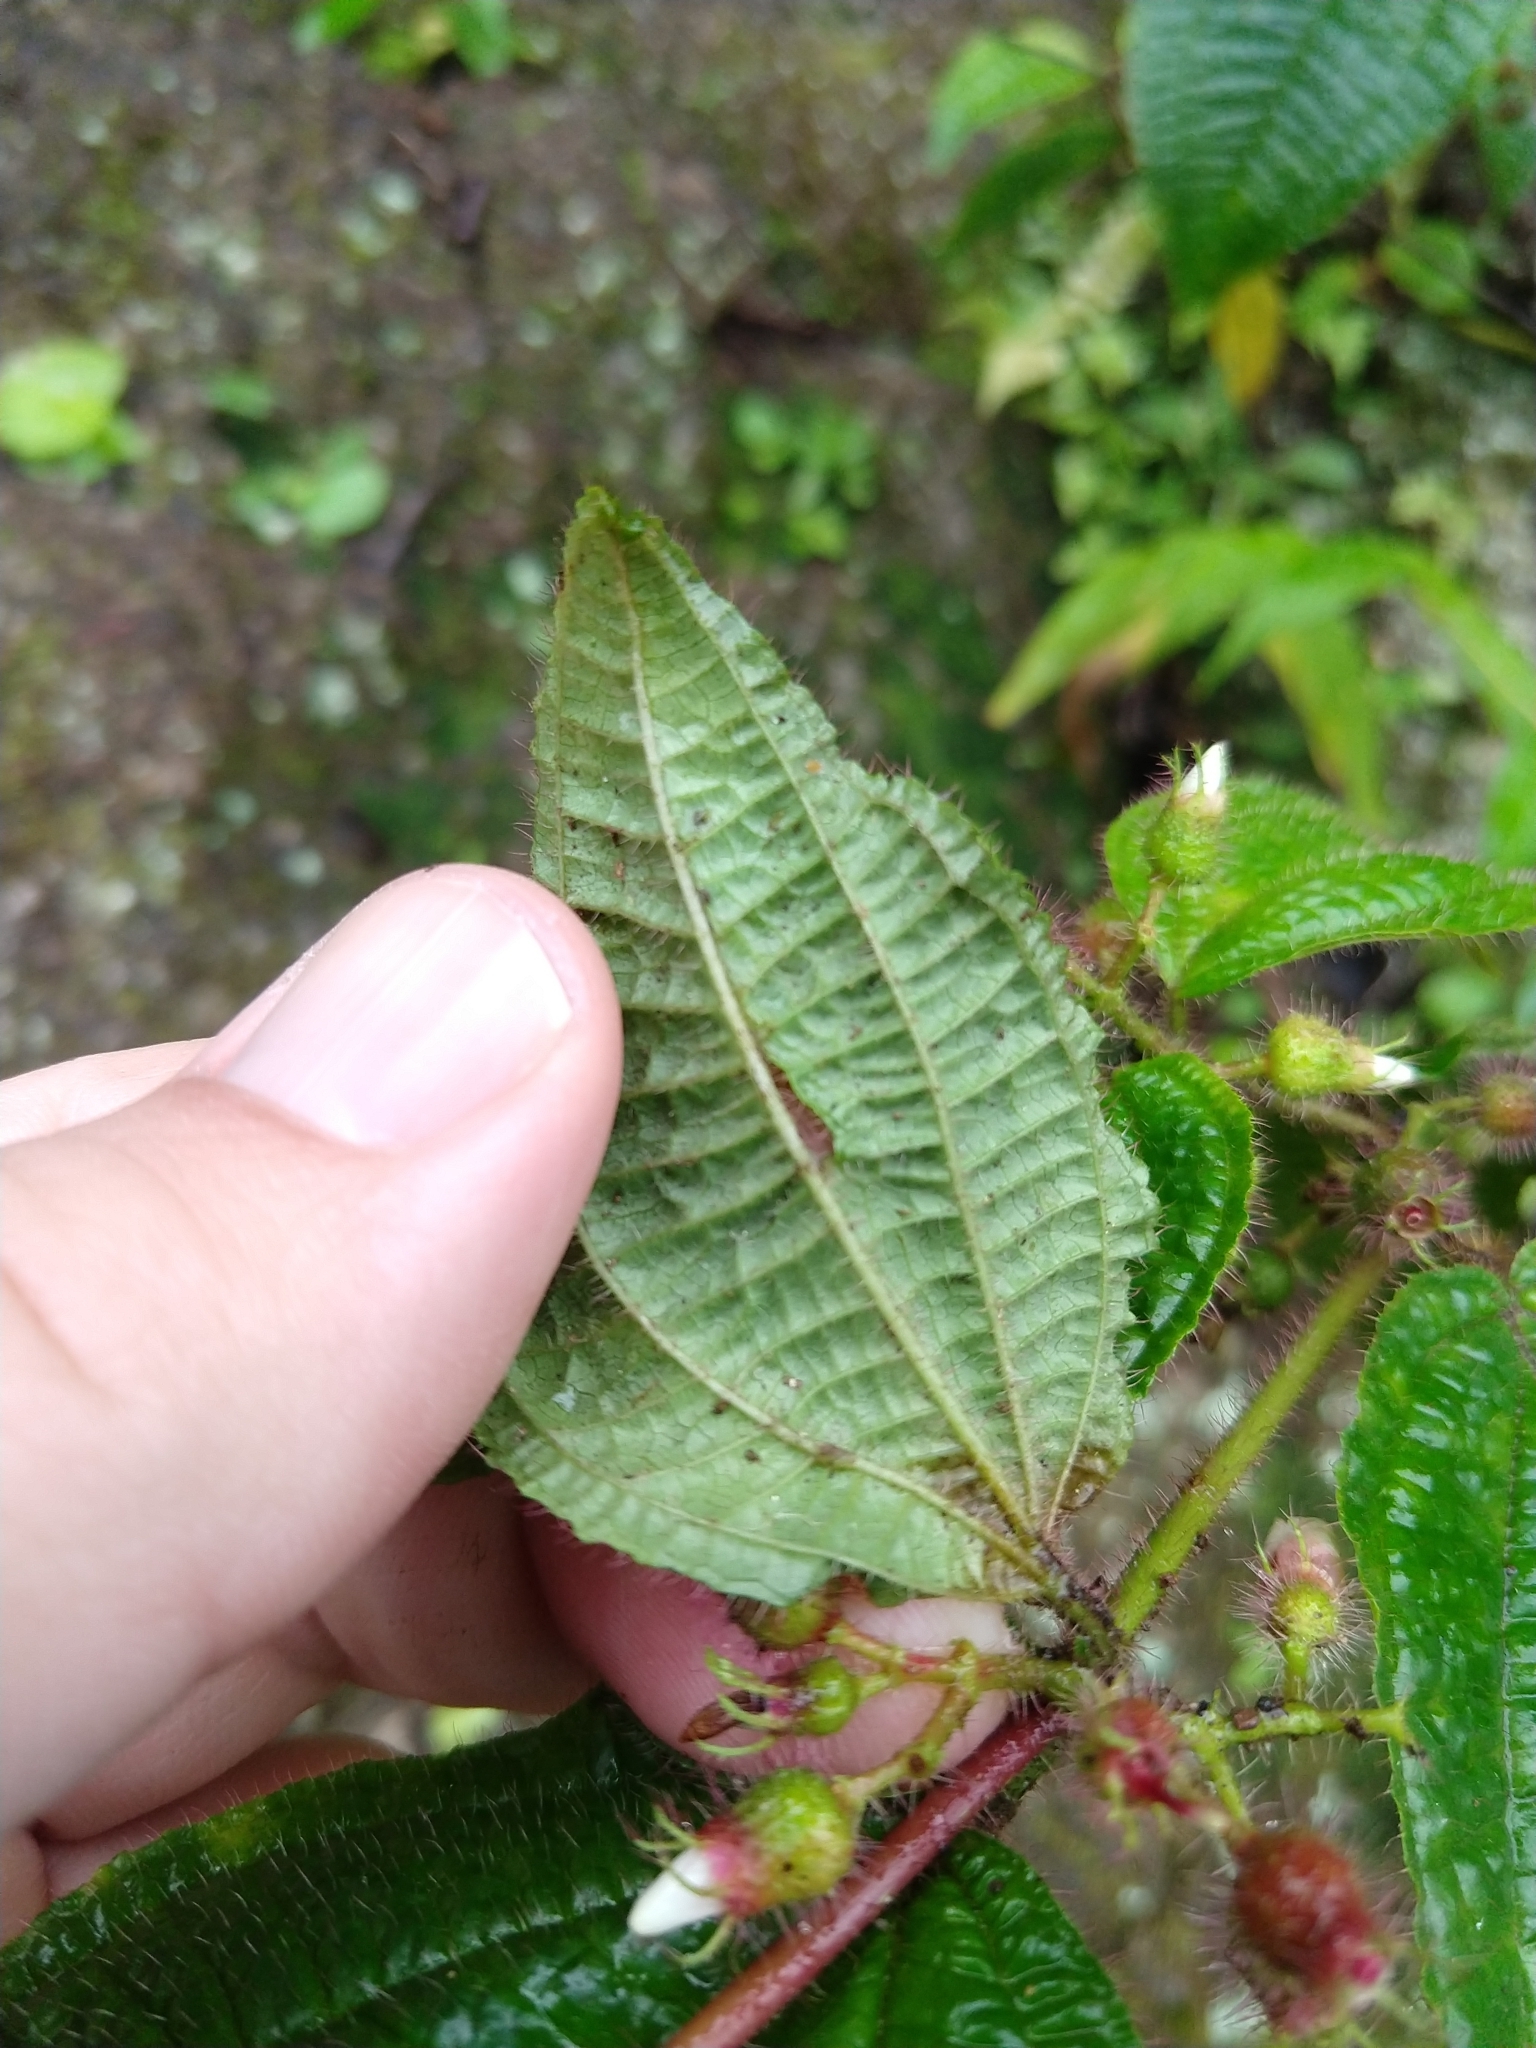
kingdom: Plantae
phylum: Tracheophyta
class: Magnoliopsida
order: Myrtales
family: Melastomataceae
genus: Miconia
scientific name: Miconia crenata
